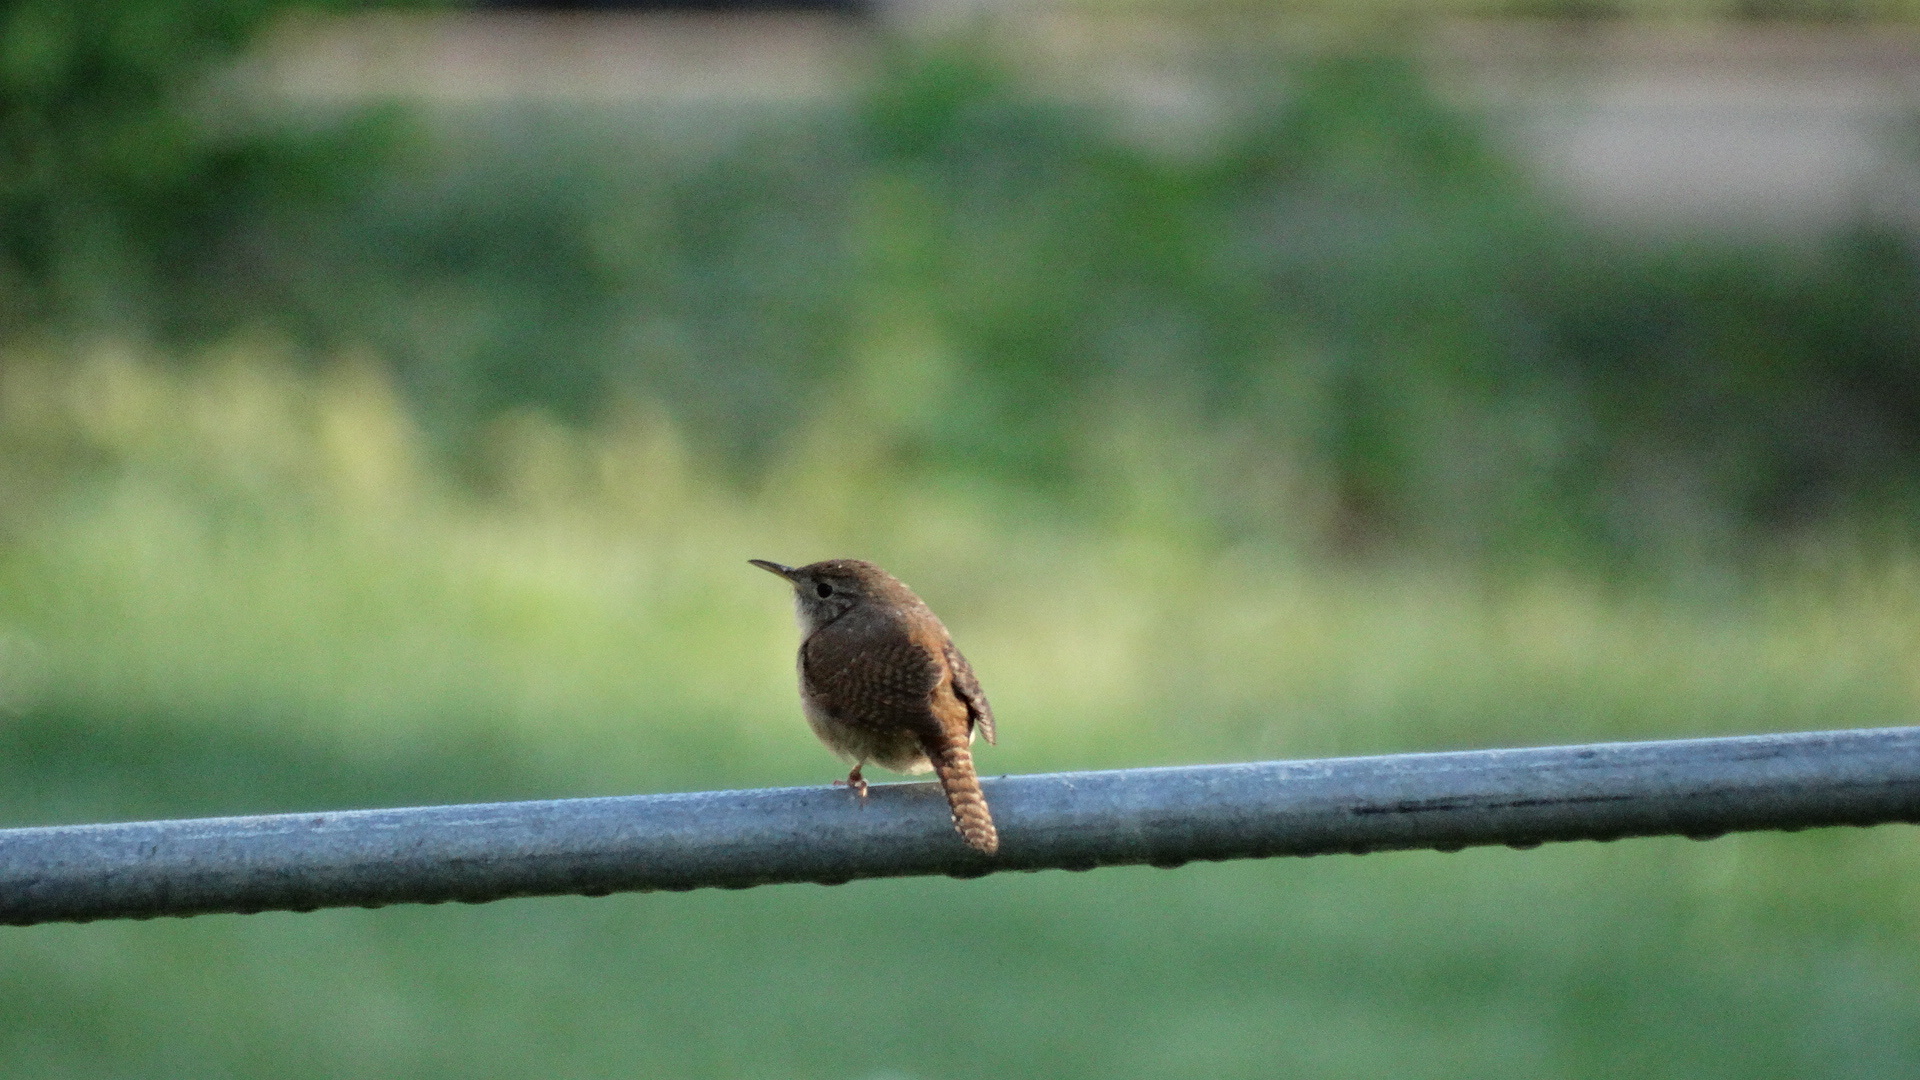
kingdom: Animalia
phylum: Chordata
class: Aves
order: Passeriformes
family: Troglodytidae
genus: Troglodytes
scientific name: Troglodytes aedon
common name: House wren
